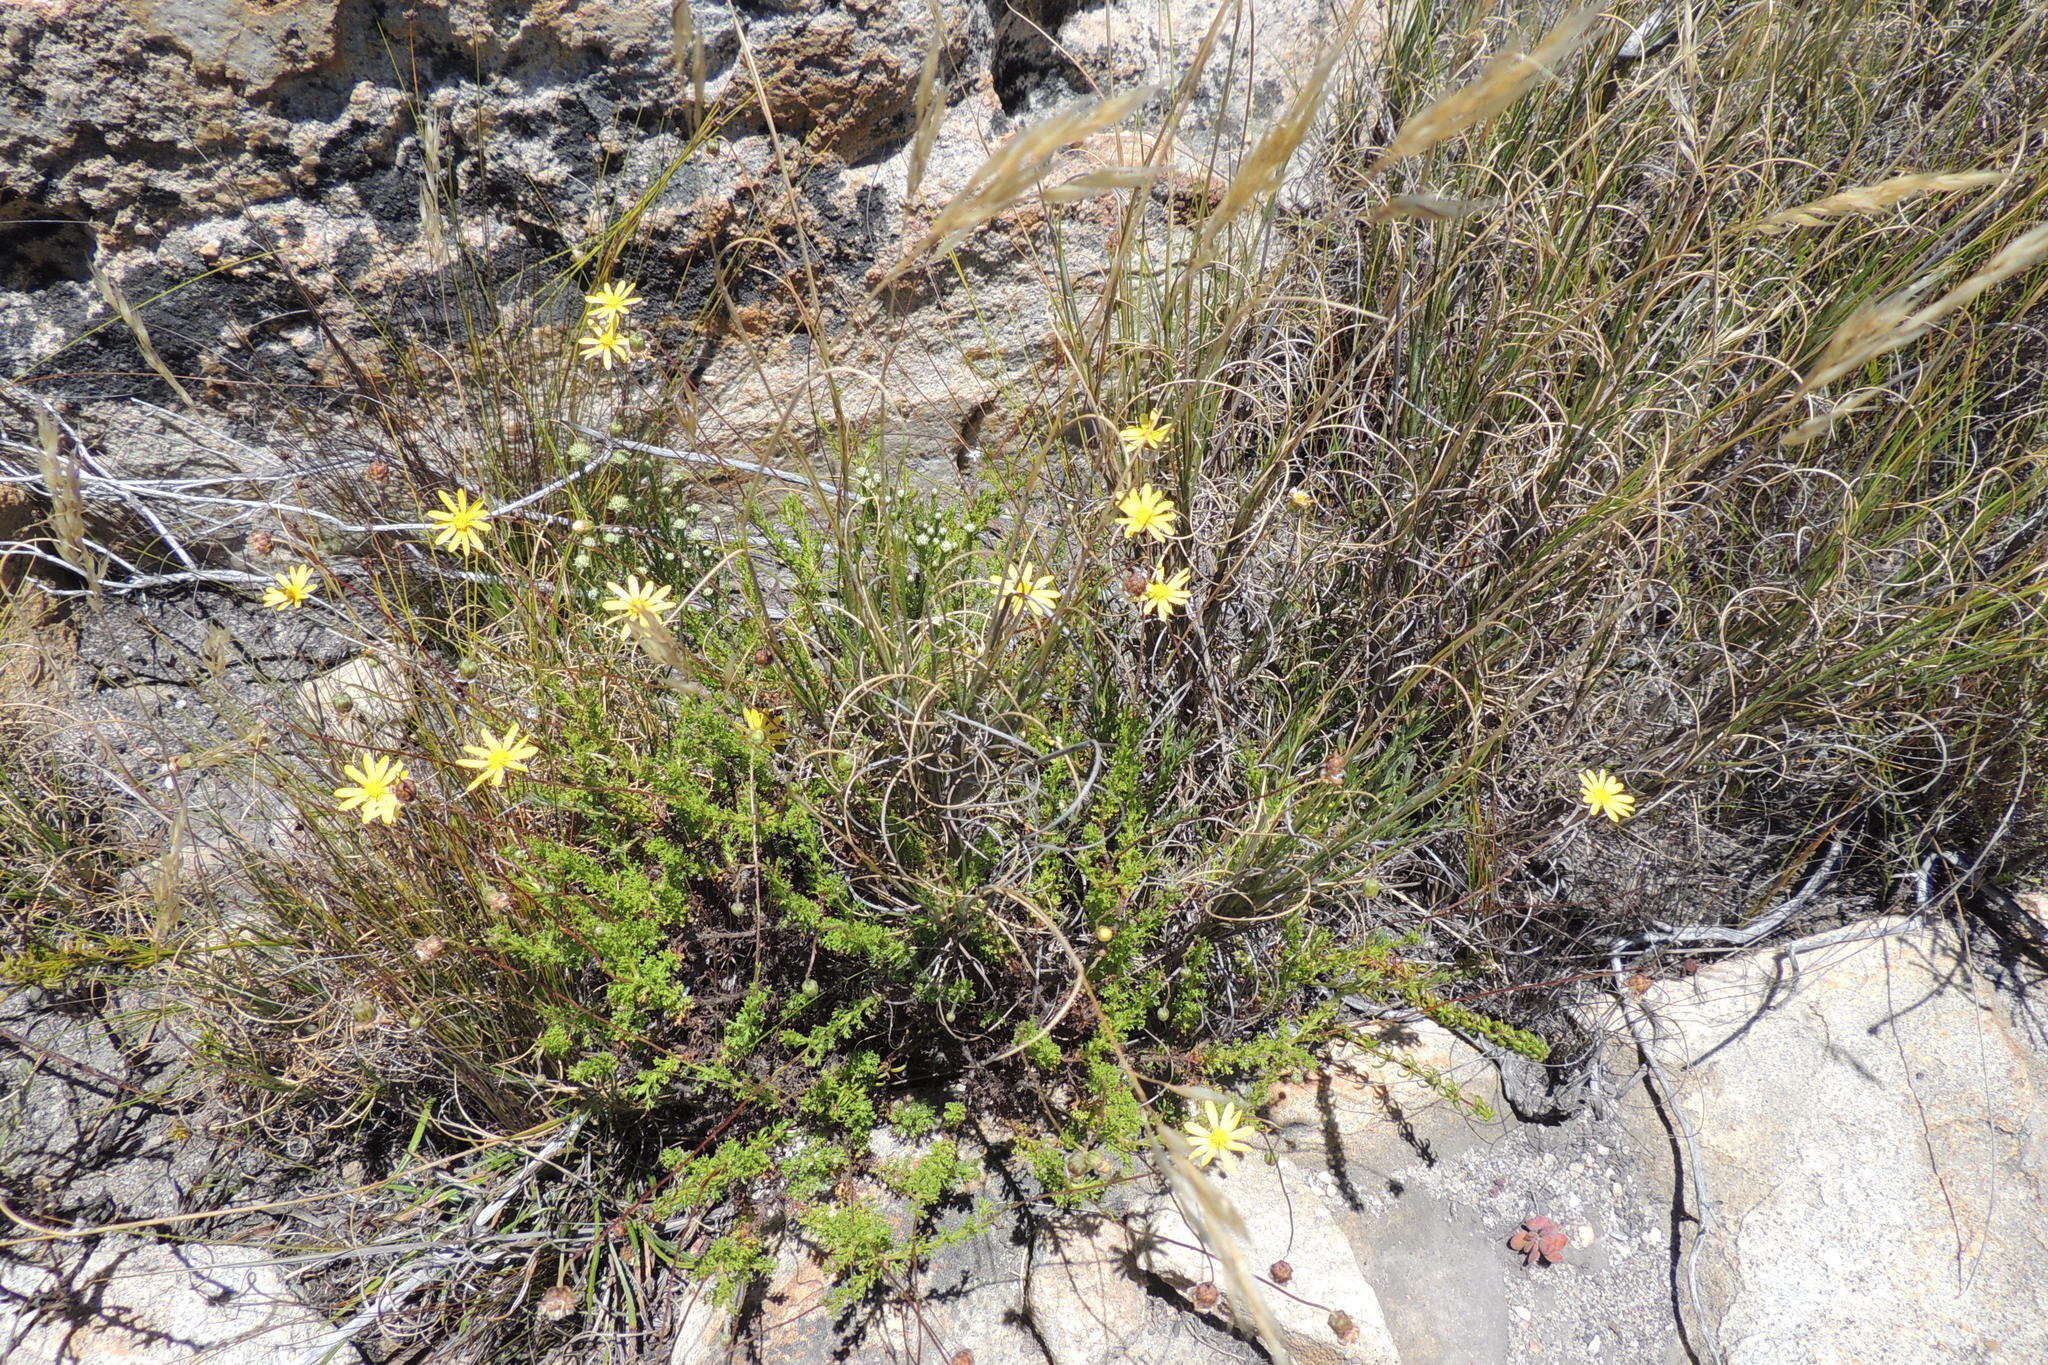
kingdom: Plantae
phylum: Tracheophyta
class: Magnoliopsida
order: Asterales
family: Asteraceae
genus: Ursinia
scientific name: Ursinia heterodonta
